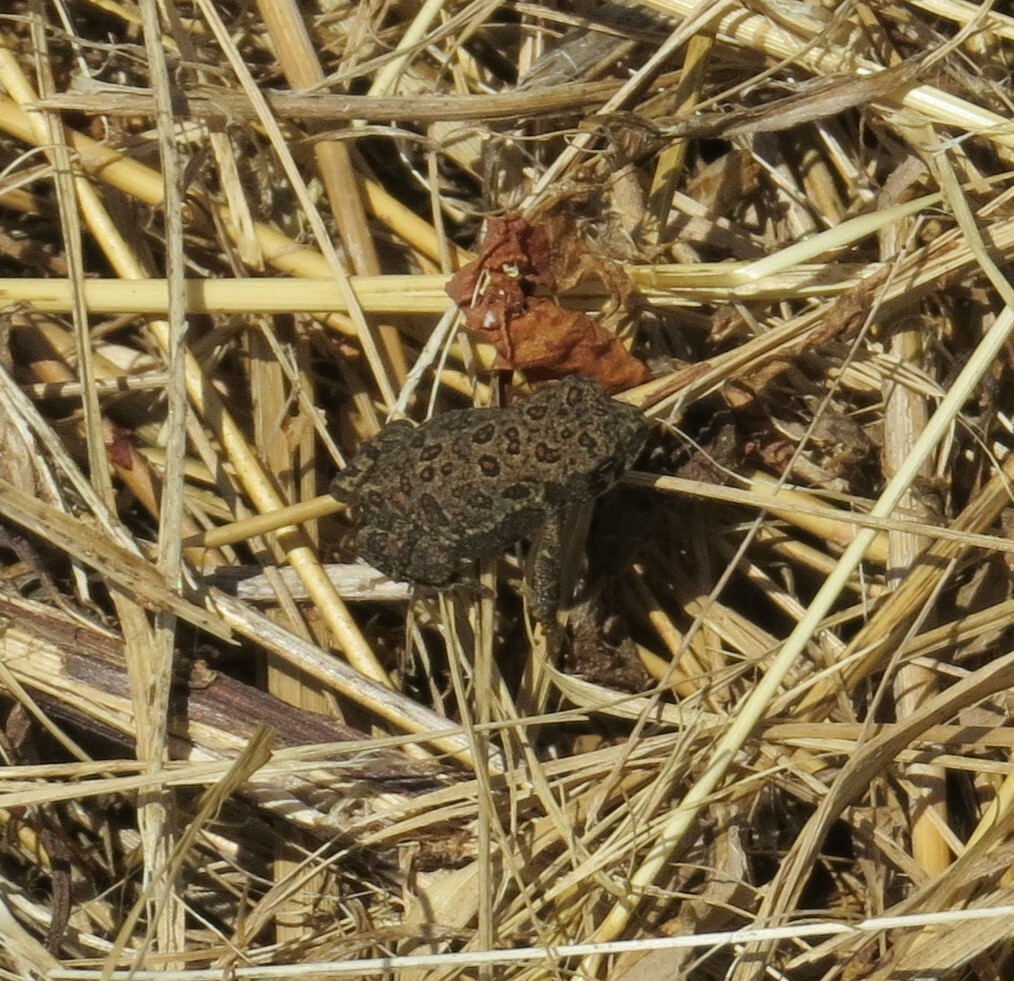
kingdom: Animalia
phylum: Chordata
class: Amphibia
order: Anura
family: Bufonidae
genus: Anaxyrus
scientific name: Anaxyrus americanus
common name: American toad
